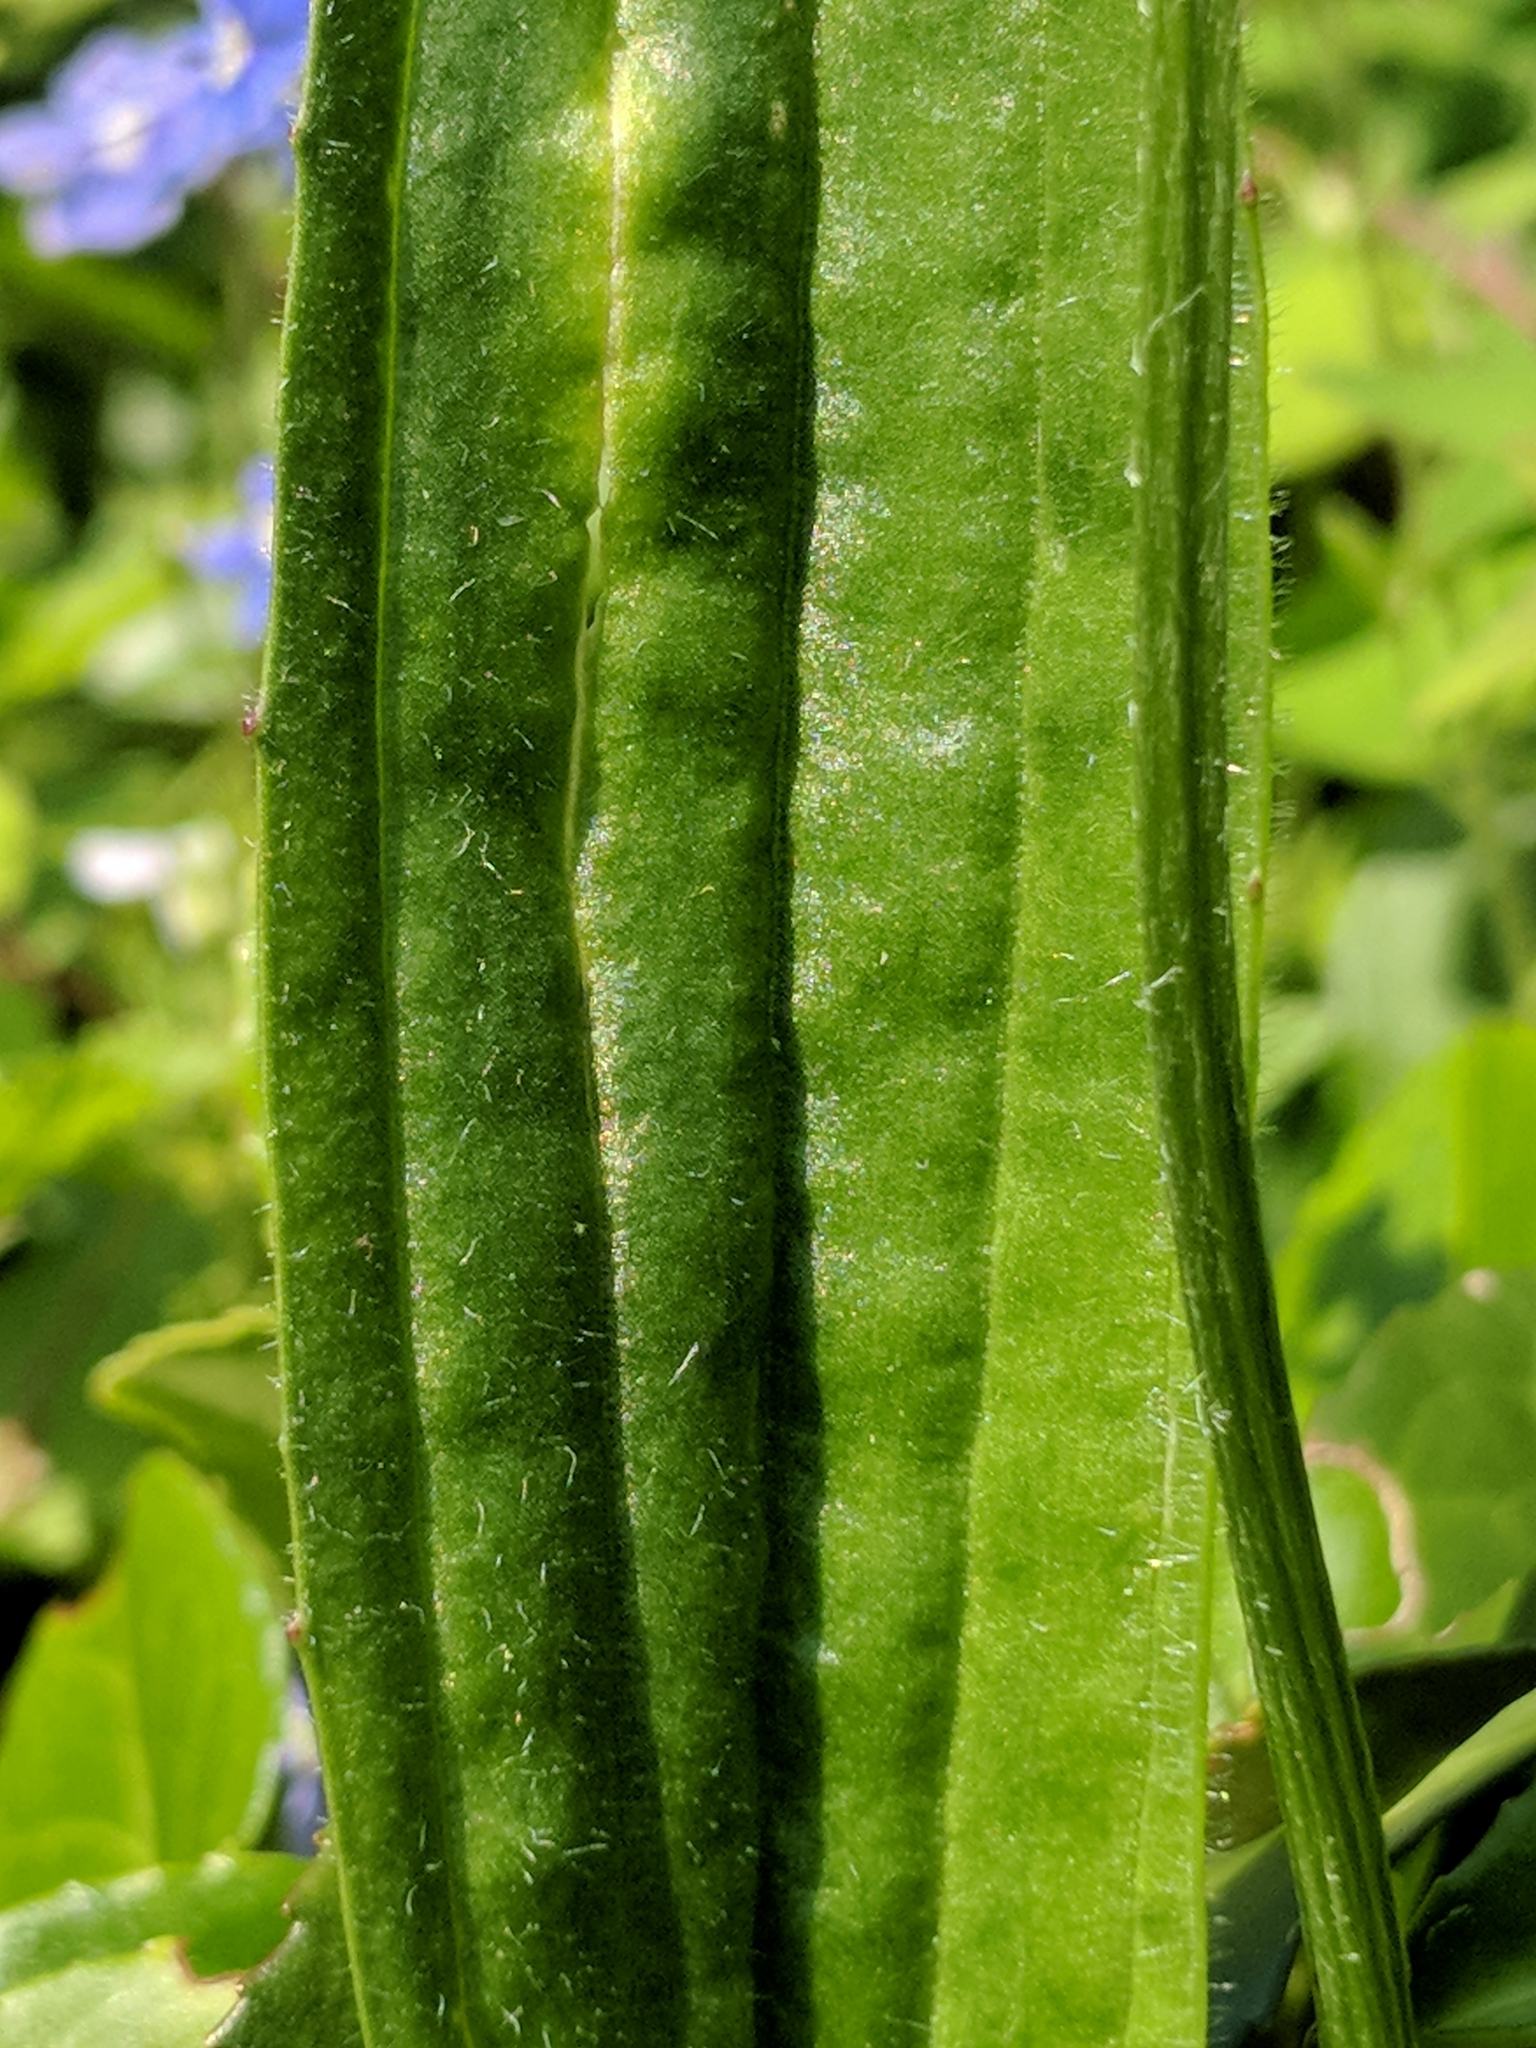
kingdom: Plantae
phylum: Tracheophyta
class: Magnoliopsida
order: Lamiales
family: Plantaginaceae
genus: Plantago
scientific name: Plantago lanceolata
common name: Ribwort plantain
